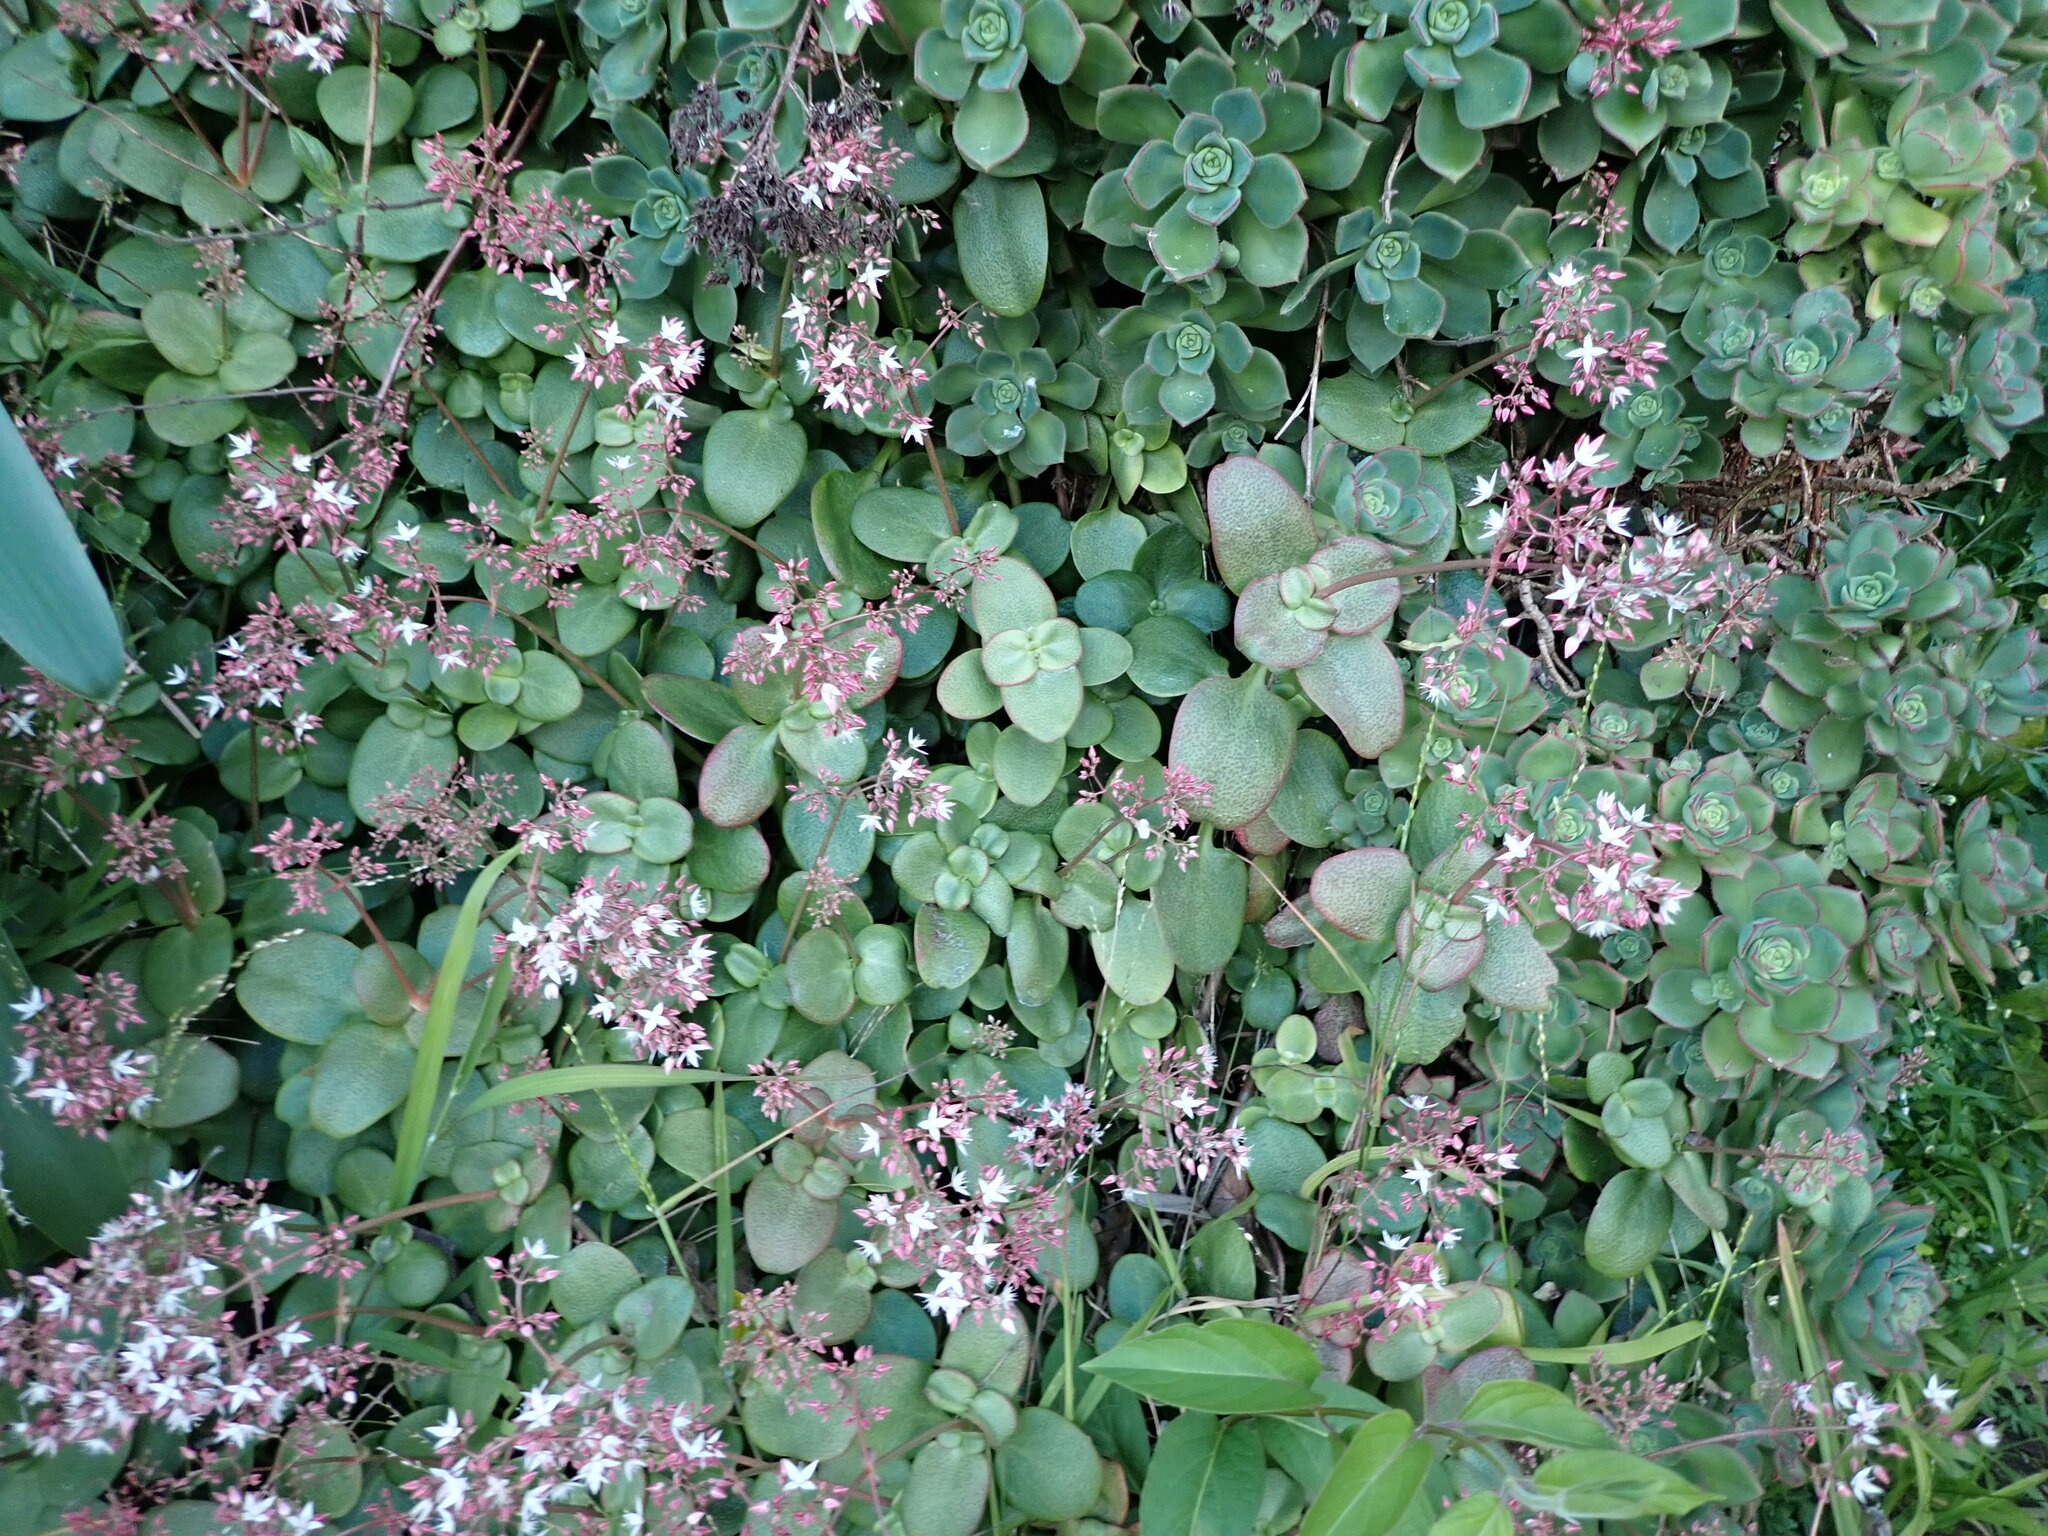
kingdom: Plantae
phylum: Tracheophyta
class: Magnoliopsida
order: Saxifragales
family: Crassulaceae
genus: Crassula
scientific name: Crassula multicava
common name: Cape province pygmyweed
